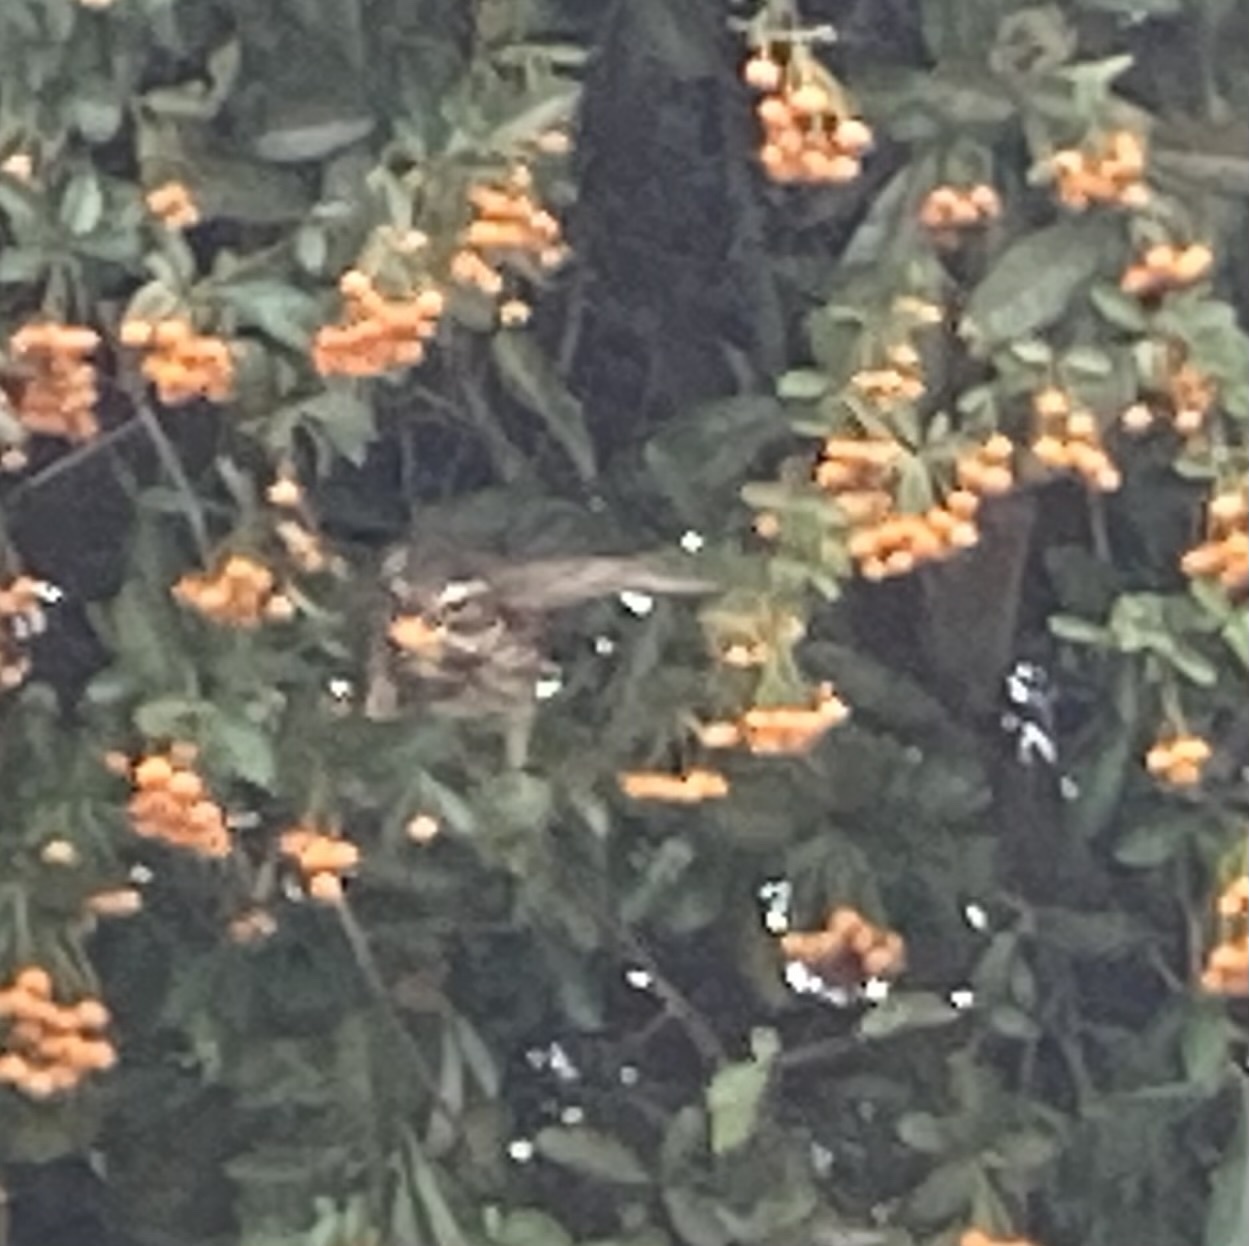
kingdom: Animalia
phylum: Chordata
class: Aves
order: Passeriformes
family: Turdidae
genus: Turdus
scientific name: Turdus iliacus
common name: Redwing
